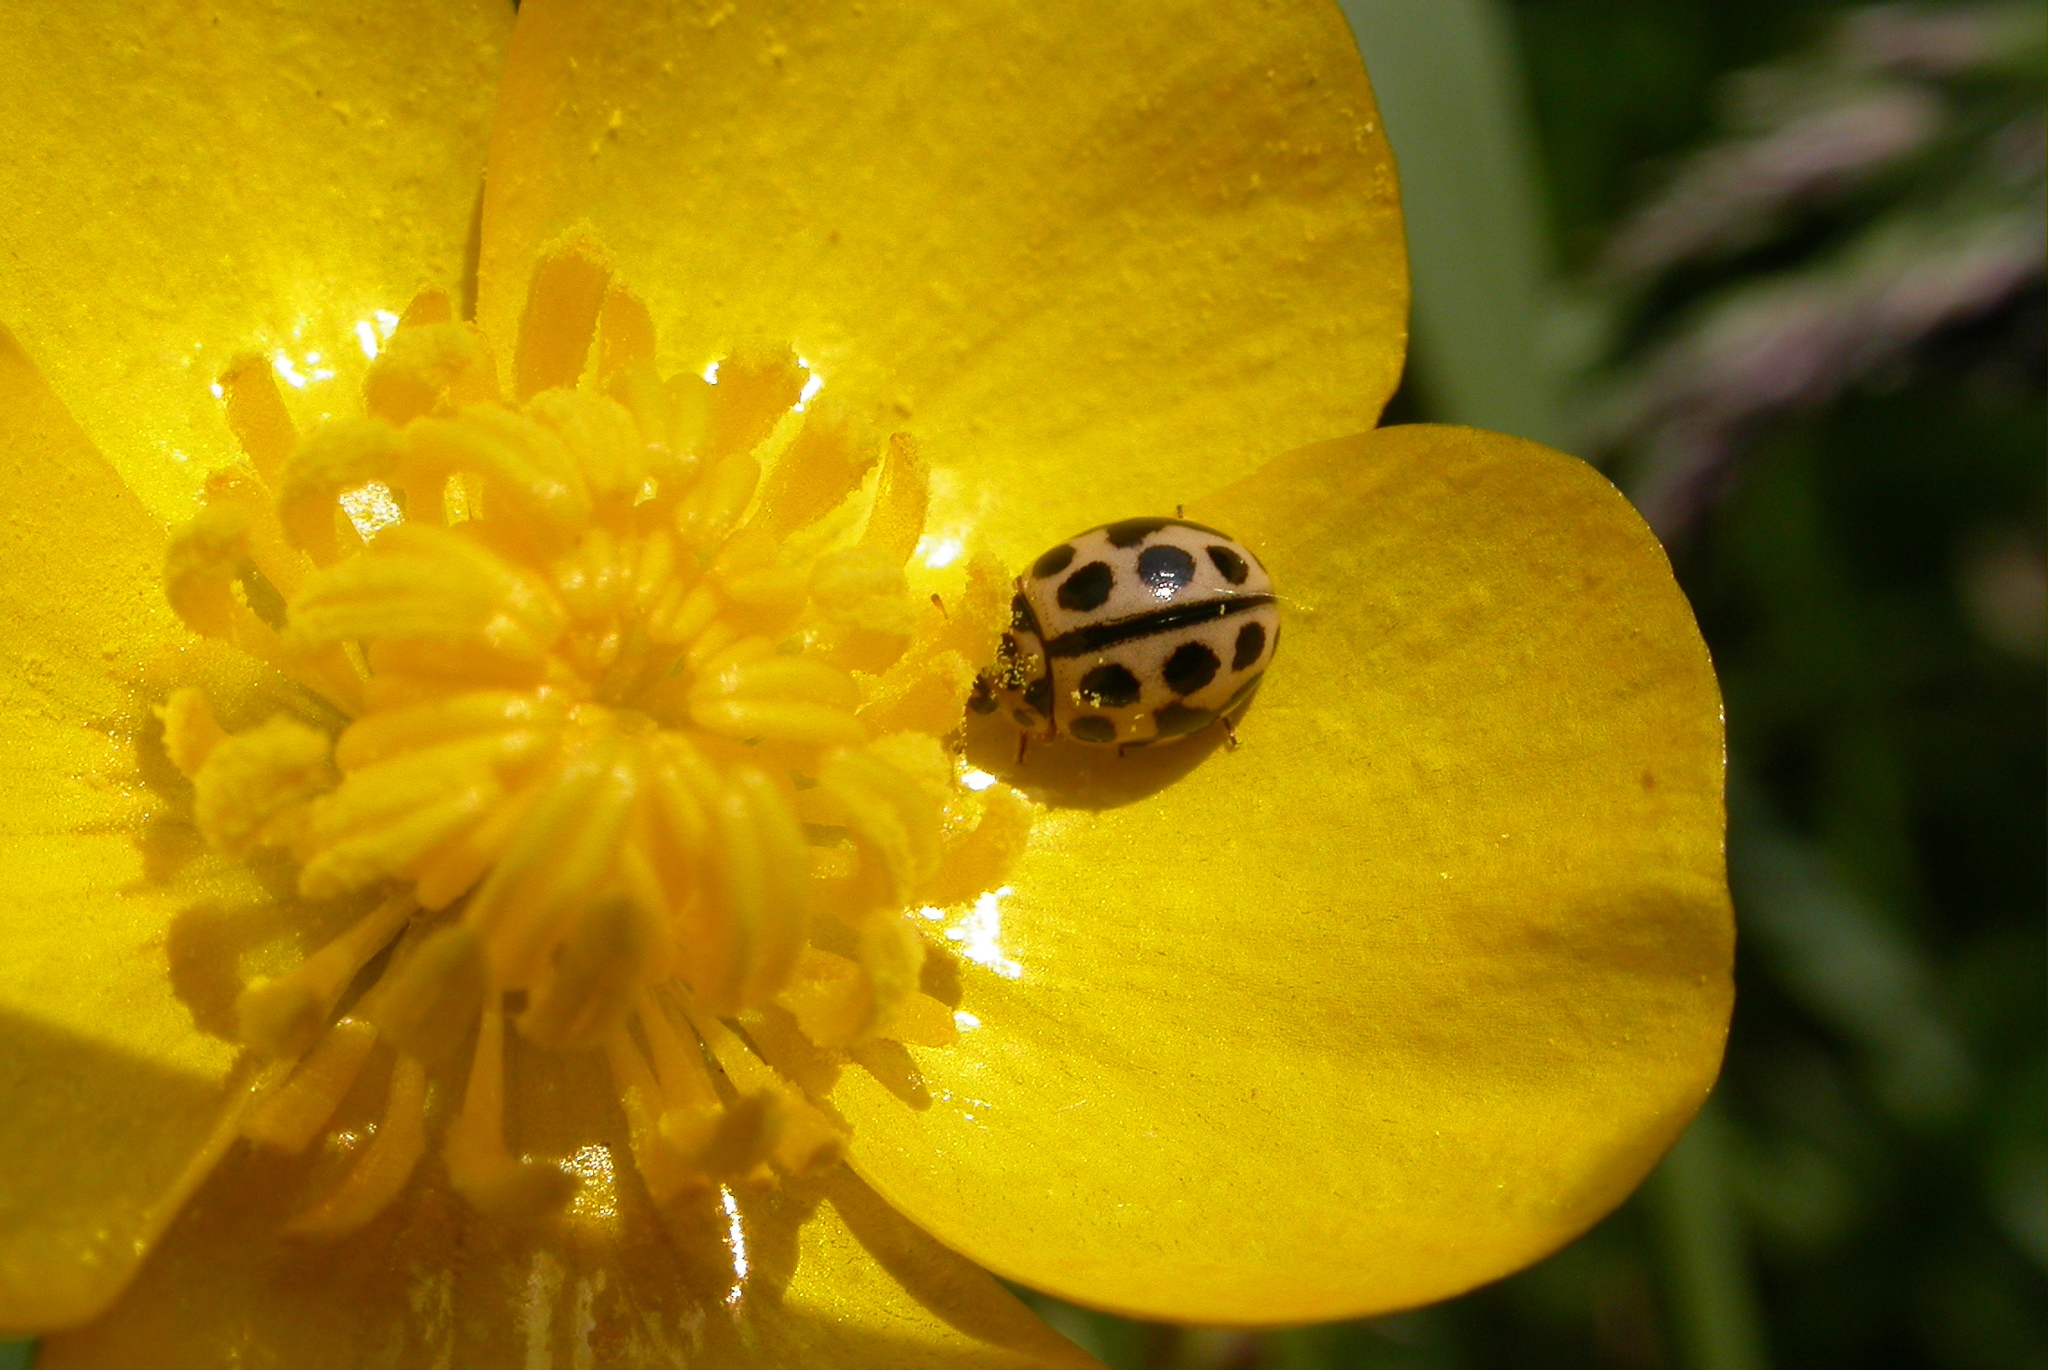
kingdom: Animalia
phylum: Arthropoda
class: Insecta
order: Coleoptera
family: Coccinellidae
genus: Tytthaspis
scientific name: Tytthaspis sedecimpunctata
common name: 16-spot ladybird
